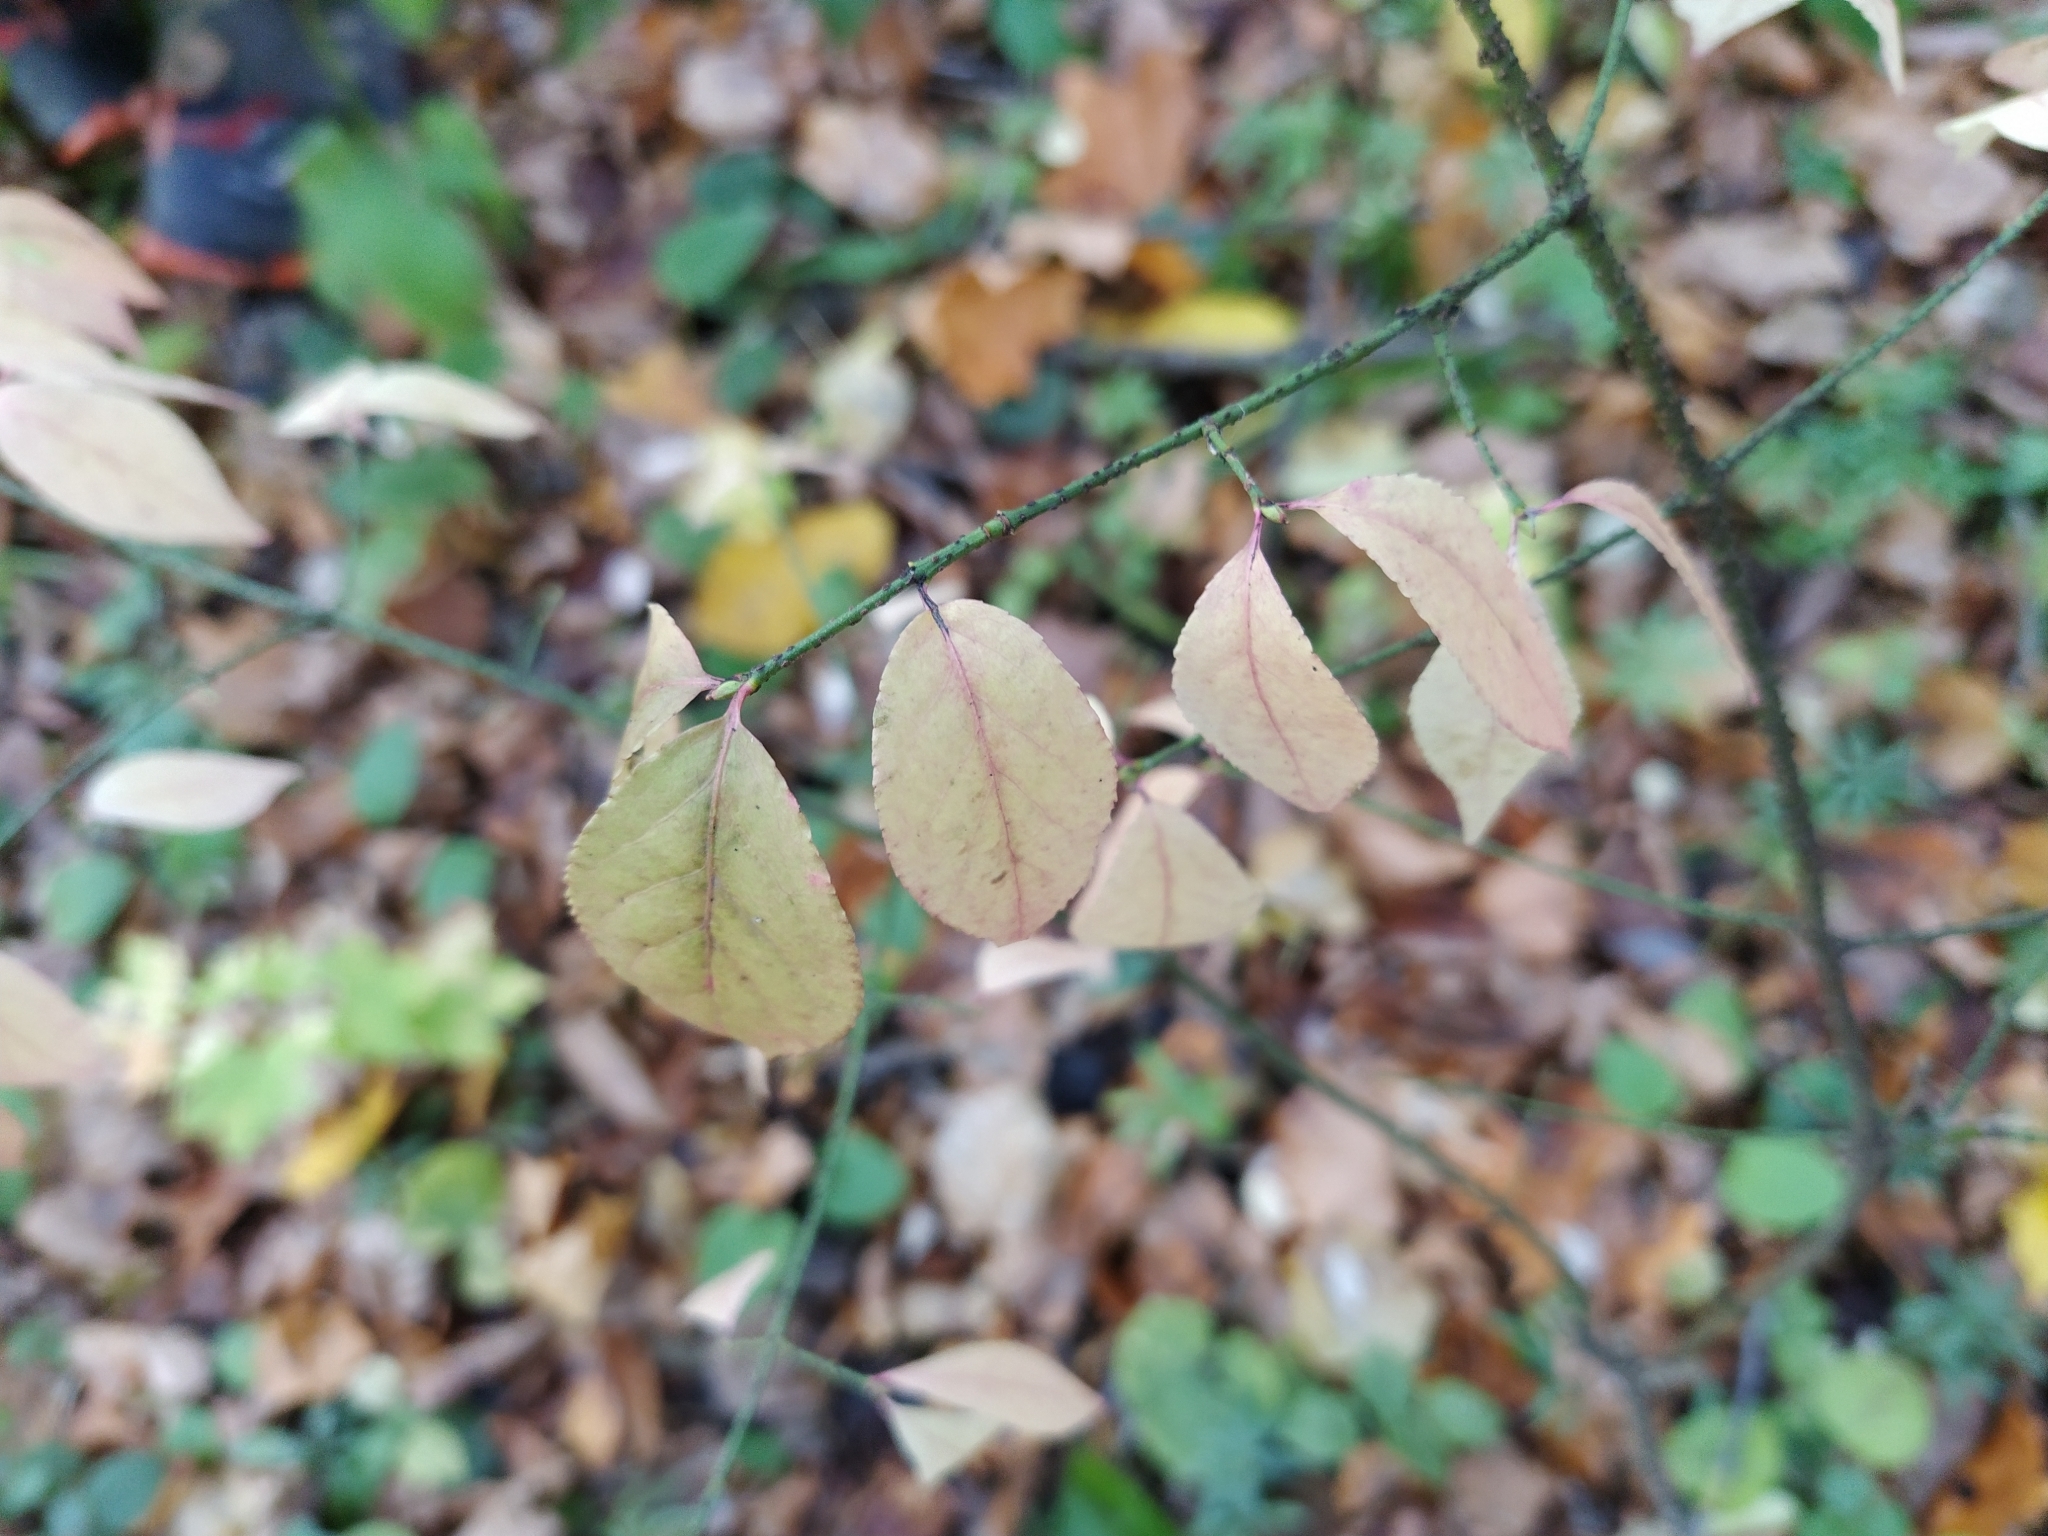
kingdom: Plantae
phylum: Tracheophyta
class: Magnoliopsida
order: Celastrales
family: Celastraceae
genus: Euonymus
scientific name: Euonymus verrucosus
